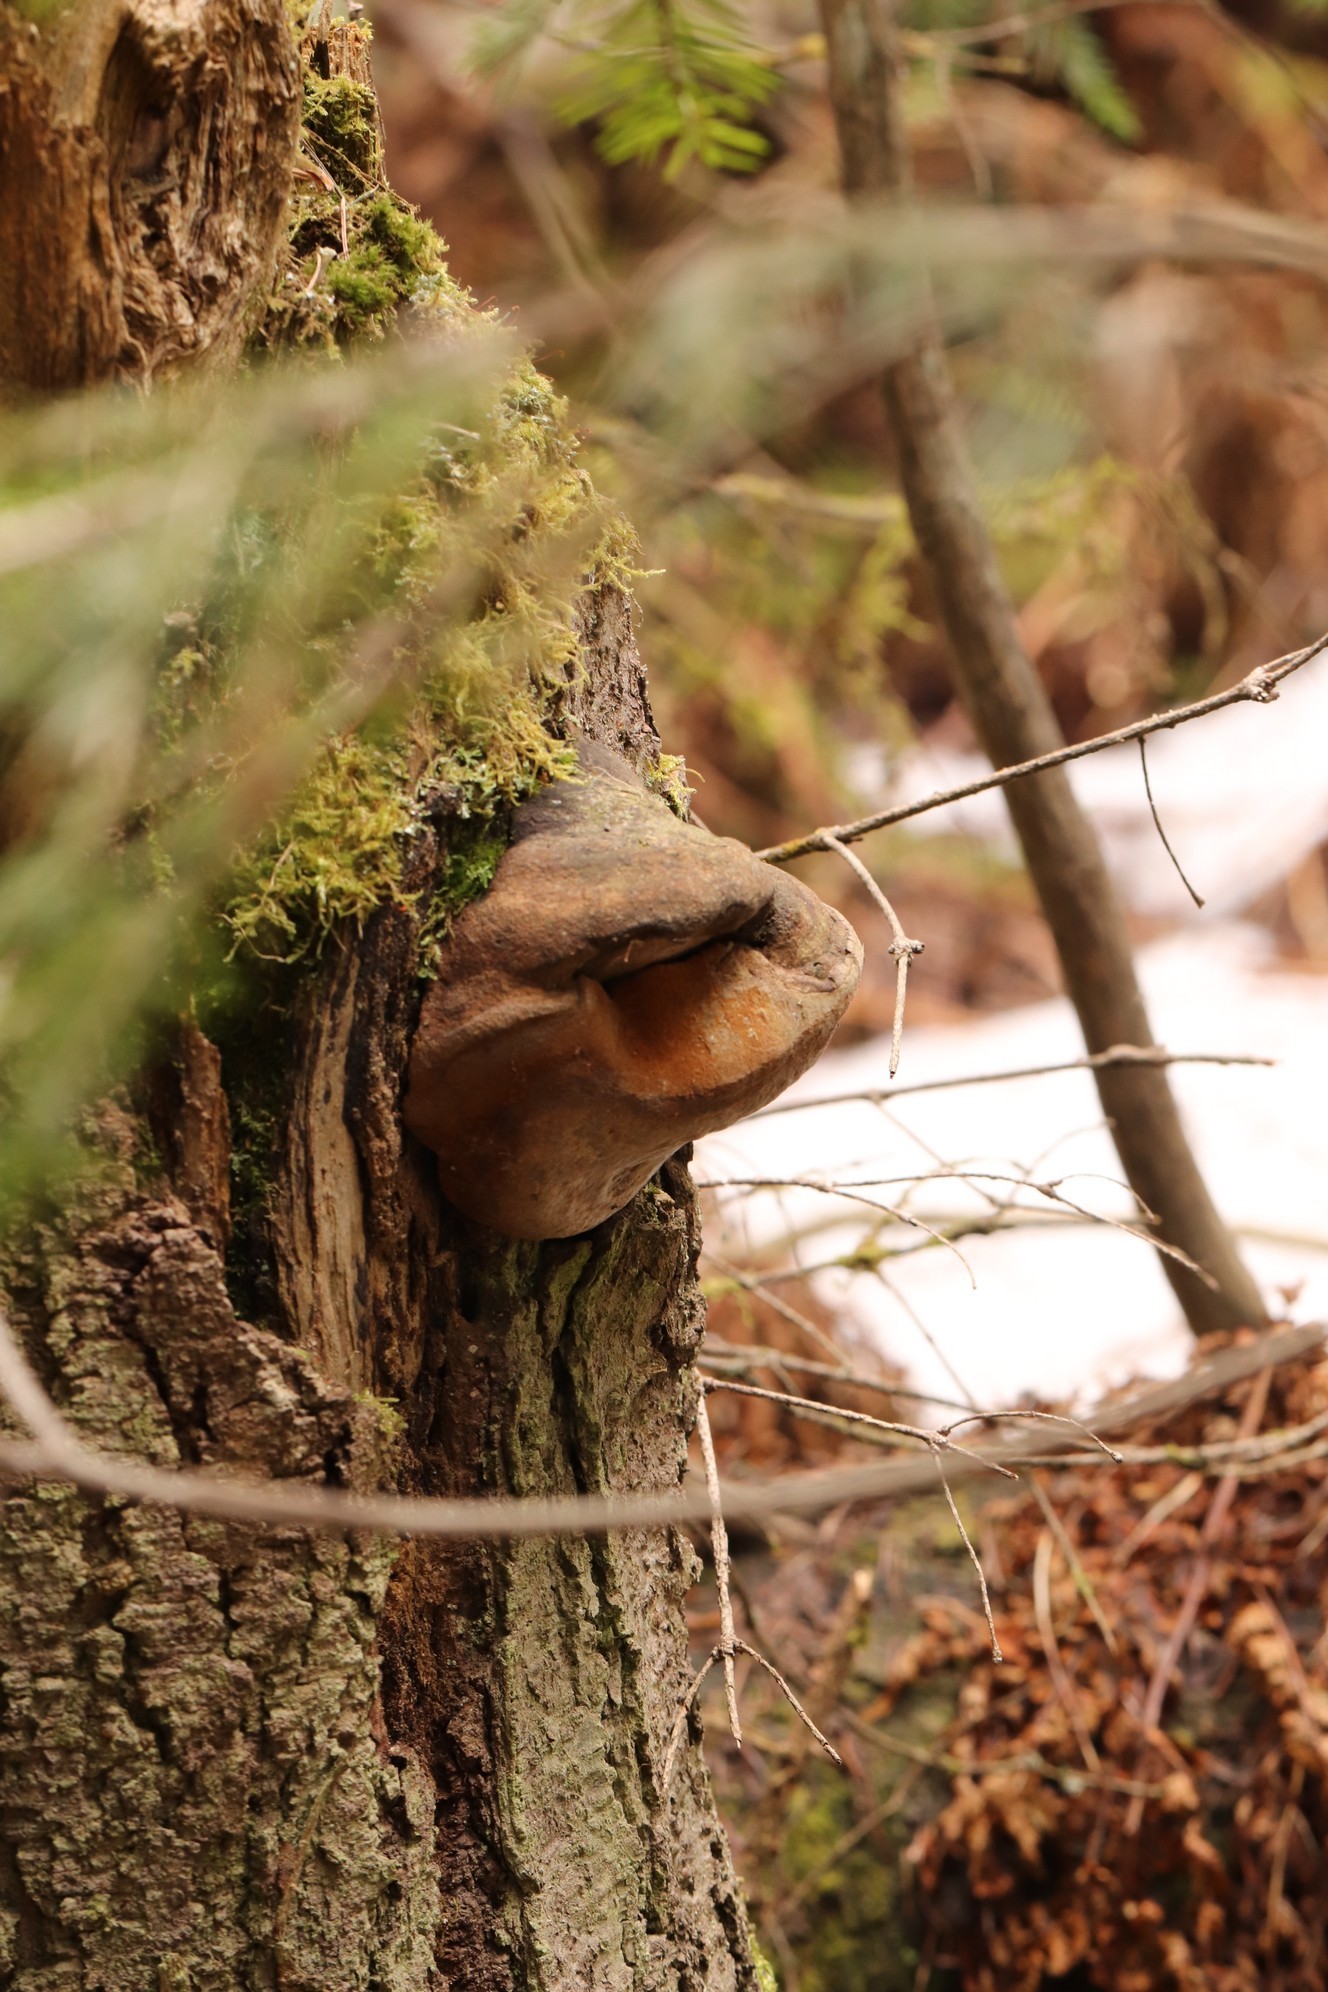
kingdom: Fungi
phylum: Basidiomycota
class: Agaricomycetes
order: Hymenochaetales
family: Hymenochaetaceae
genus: Phellinus
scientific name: Phellinus hartigii
